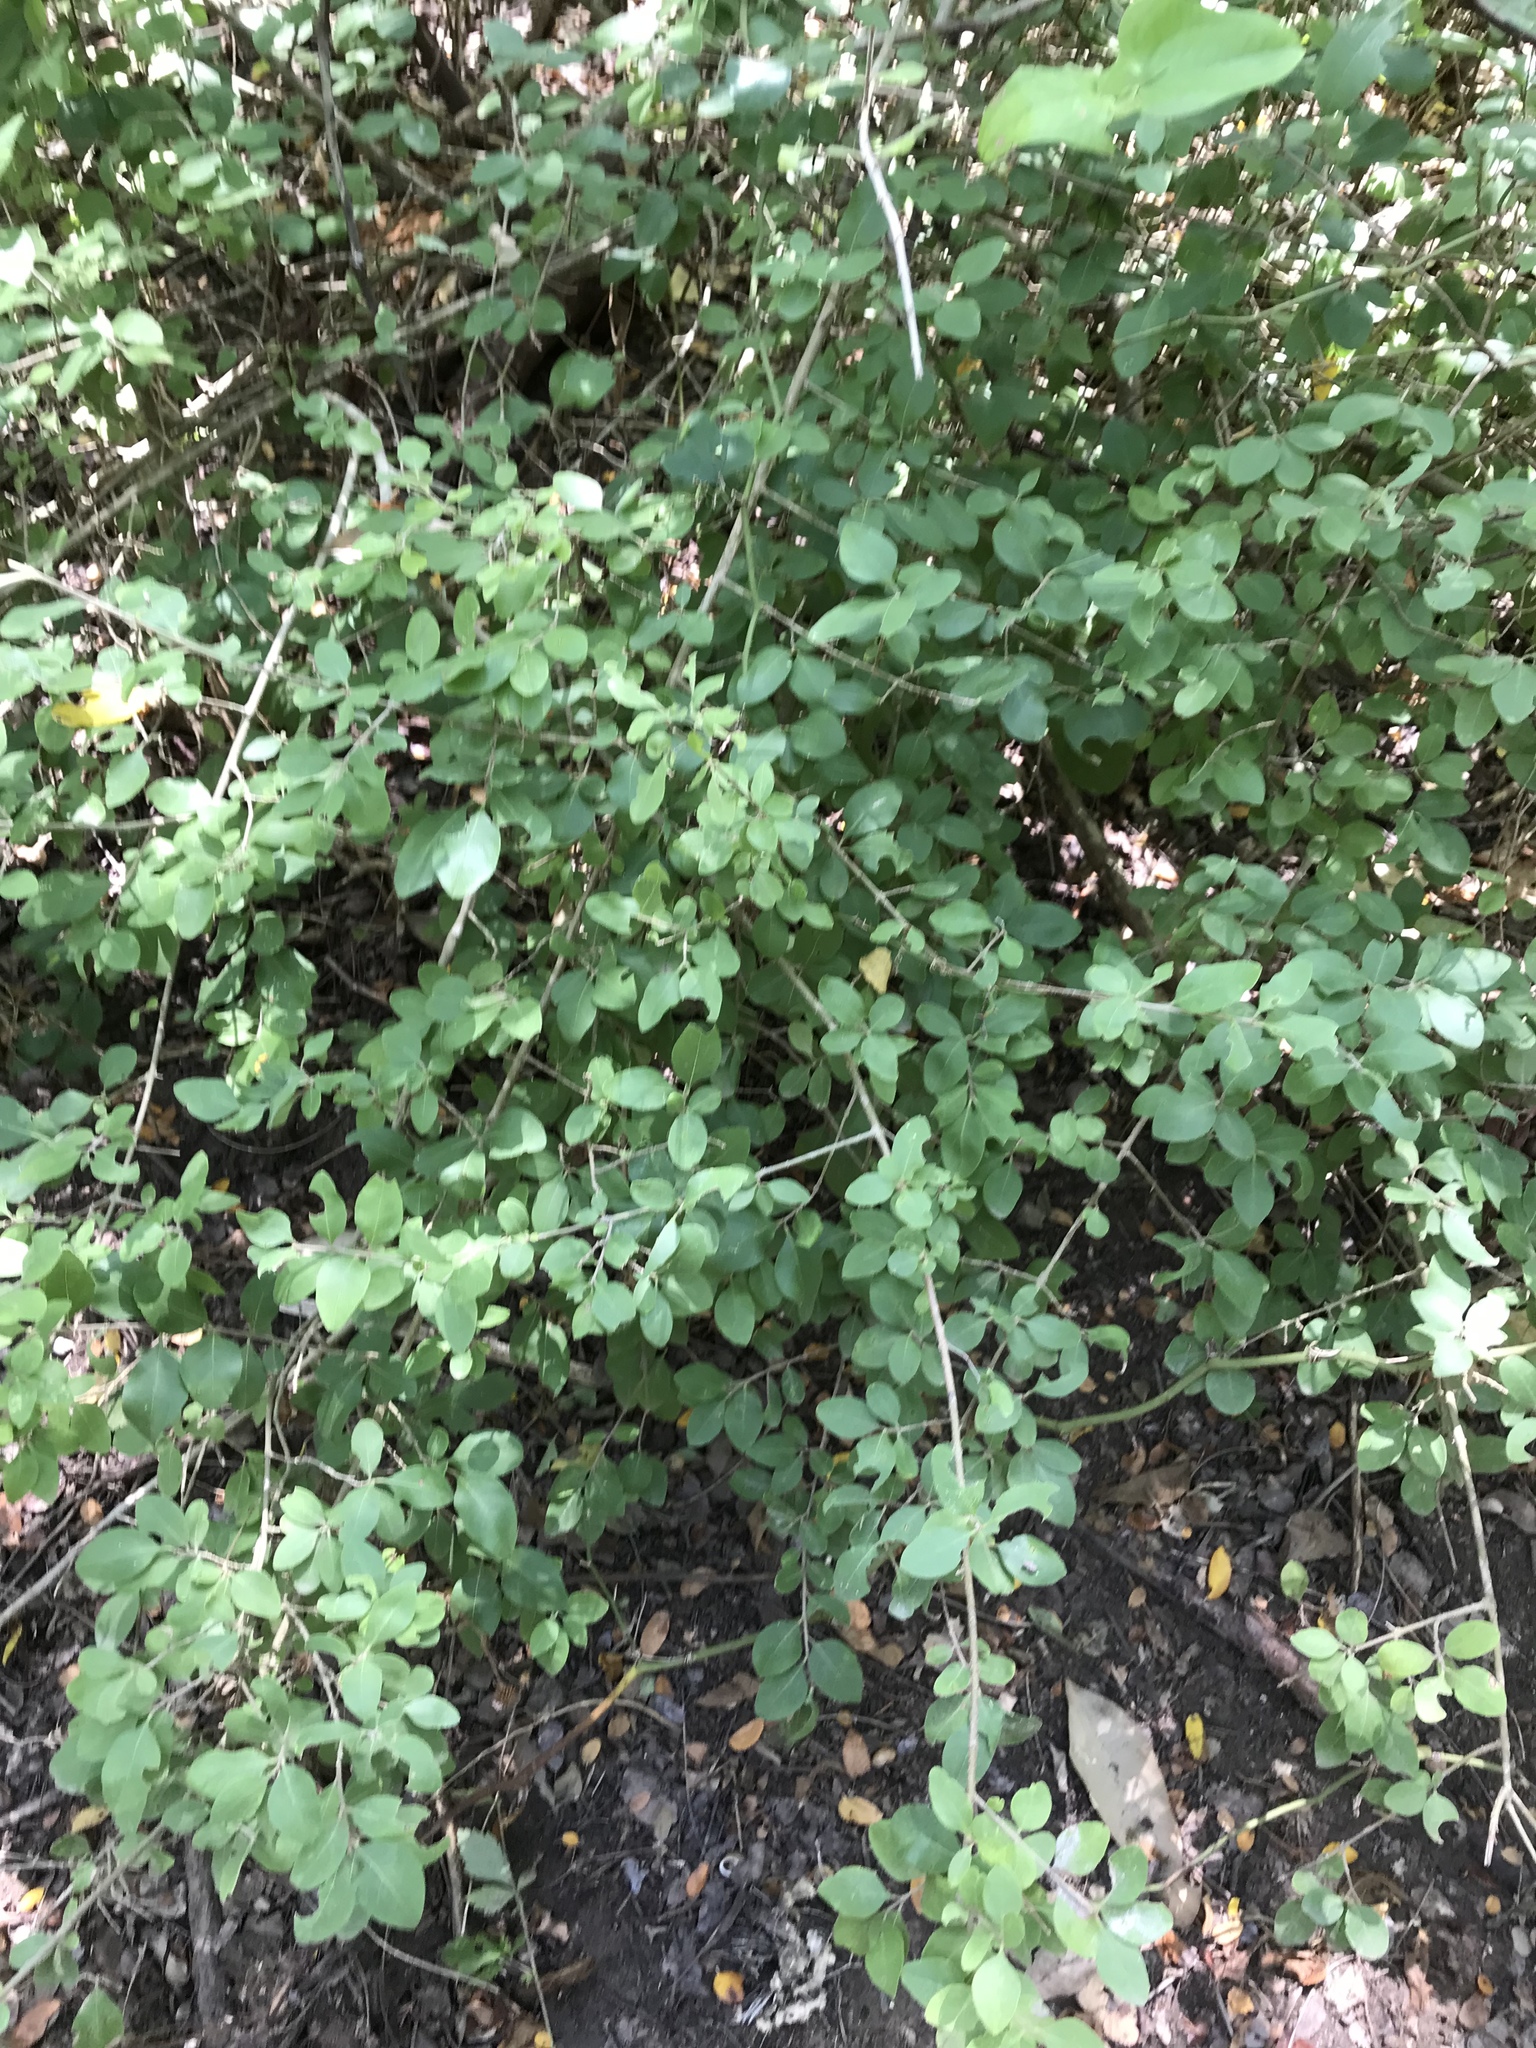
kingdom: Plantae
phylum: Tracheophyta
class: Magnoliopsida
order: Lamiales
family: Oleaceae
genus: Forestiera
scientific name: Forestiera pubescens
